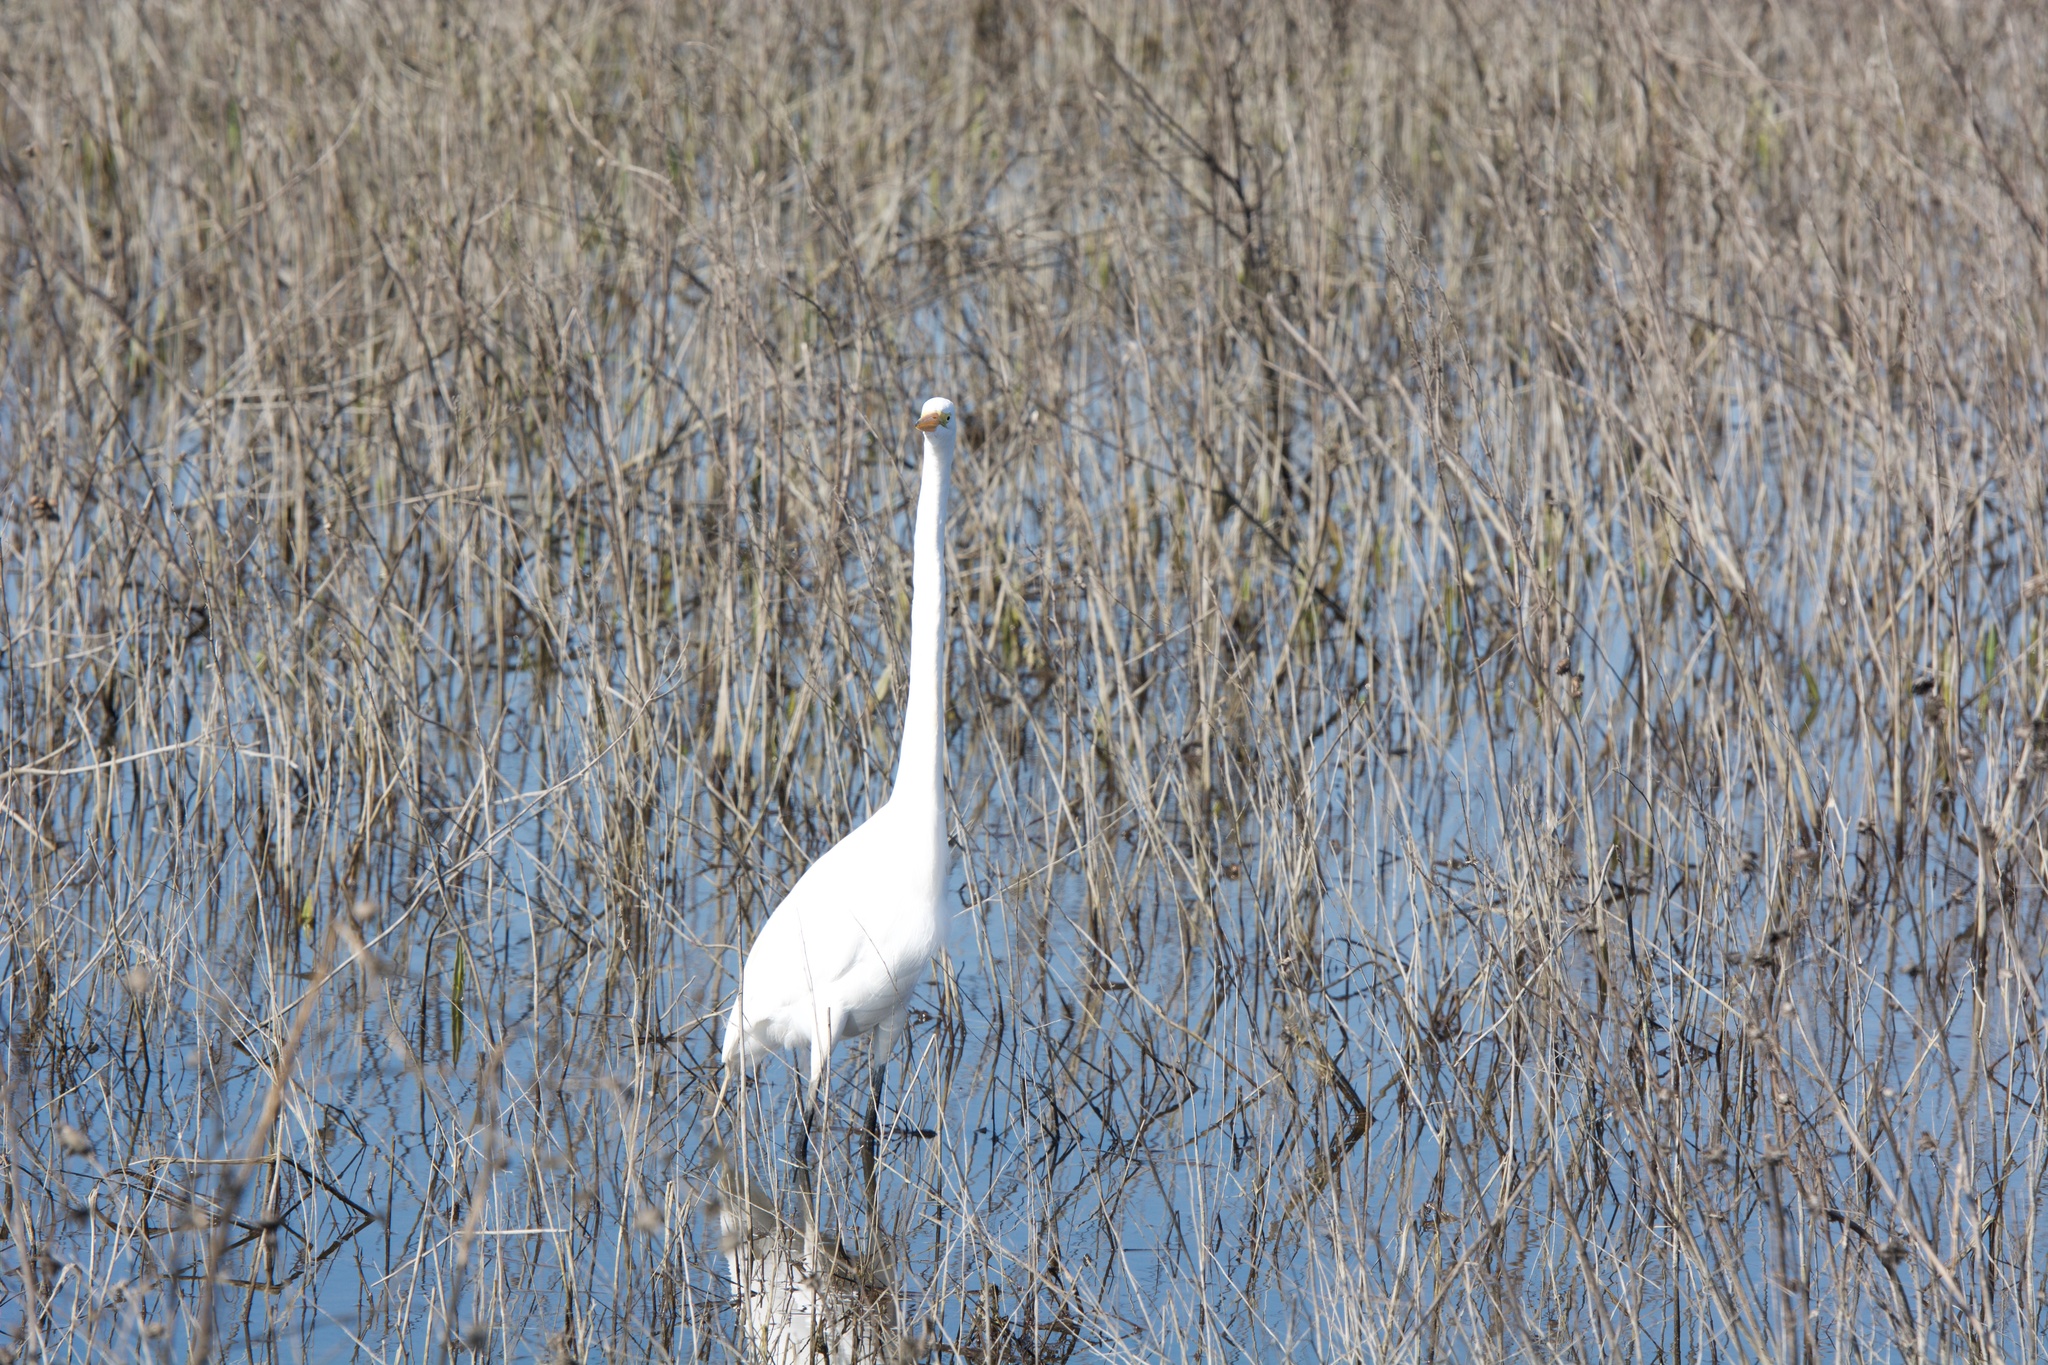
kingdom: Animalia
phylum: Chordata
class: Aves
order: Pelecaniformes
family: Ardeidae
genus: Ardea
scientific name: Ardea alba
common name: Great egret
